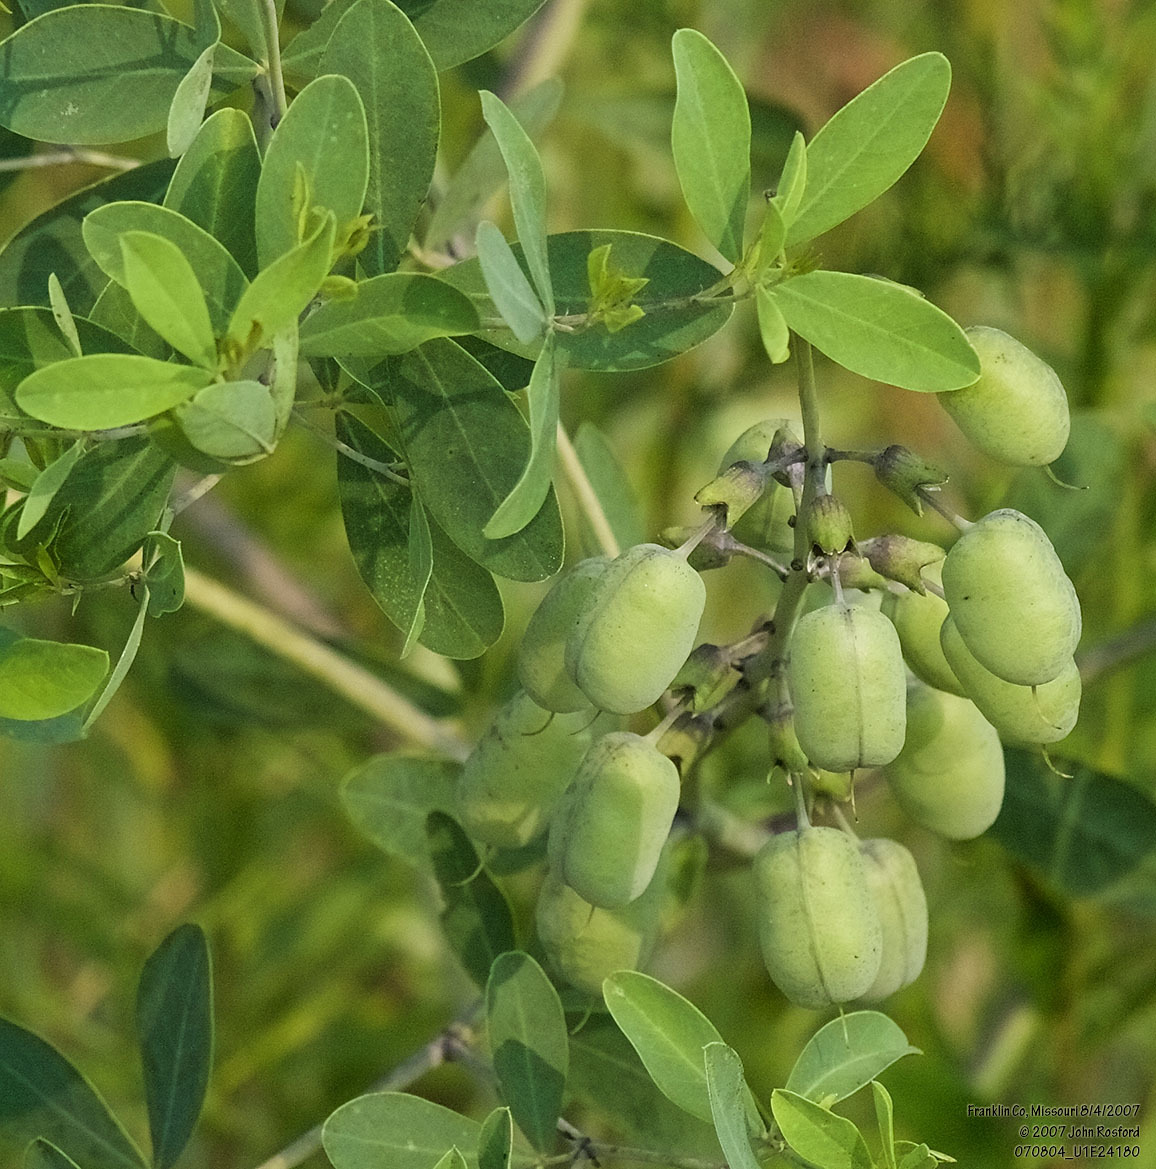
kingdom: Plantae
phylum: Tracheophyta
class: Magnoliopsida
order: Fabales
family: Fabaceae
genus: Baptisia
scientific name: Baptisia alba
